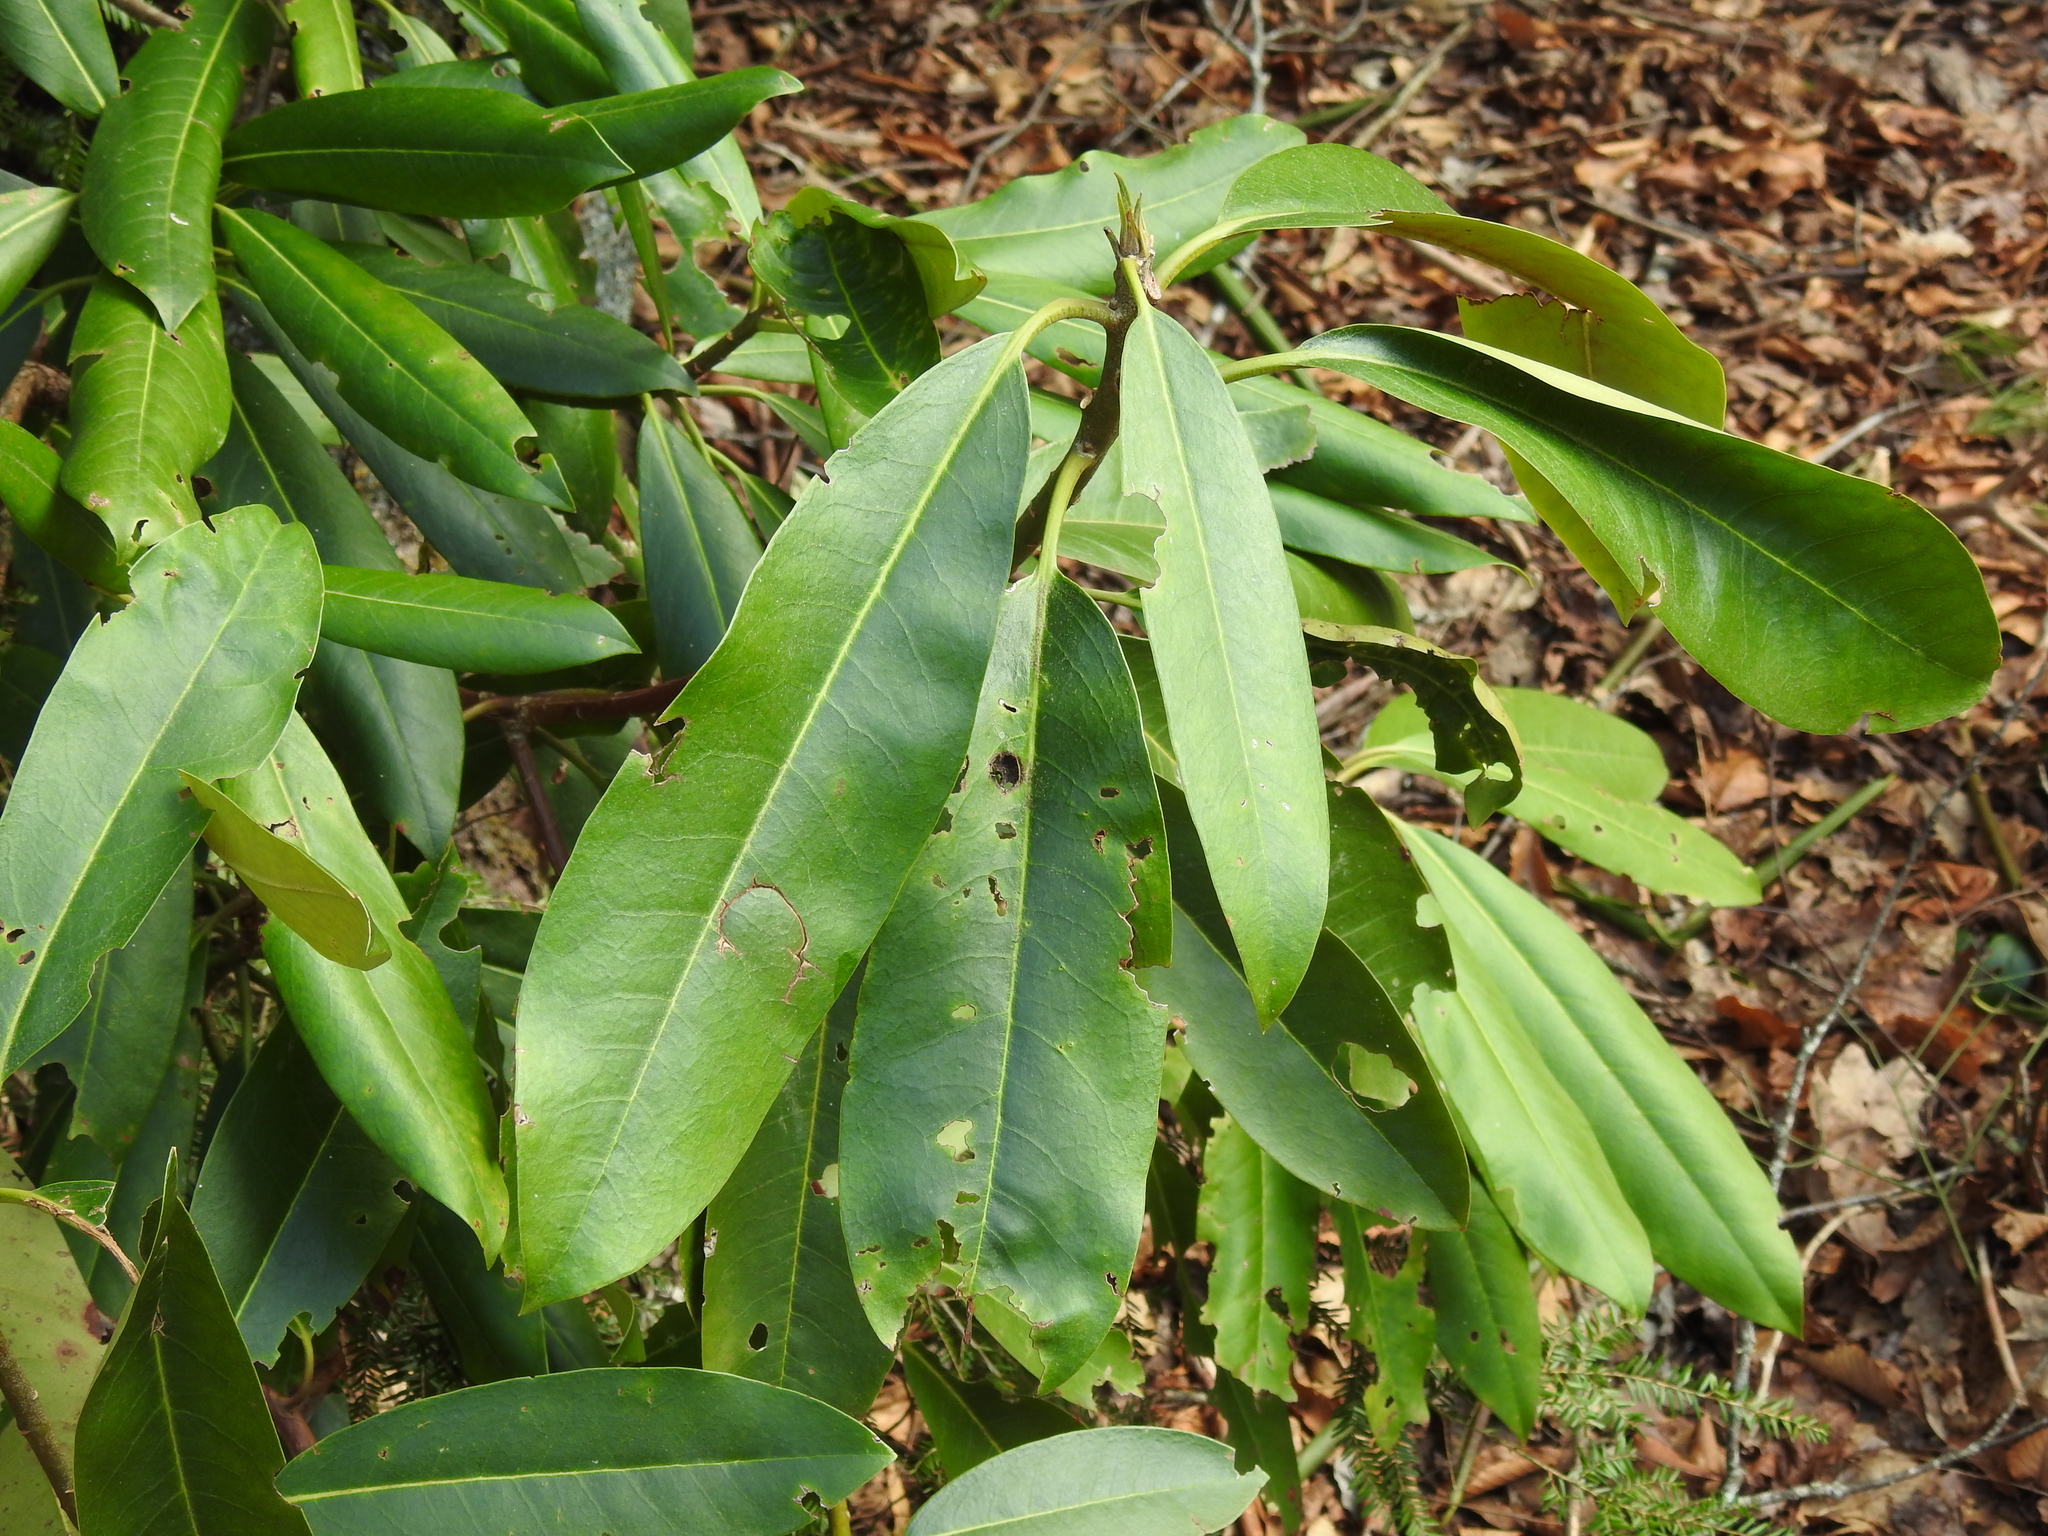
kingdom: Plantae
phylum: Tracheophyta
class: Magnoliopsida
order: Ericales
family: Ericaceae
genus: Rhododendron
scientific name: Rhododendron maximum
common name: Great rhododendron
